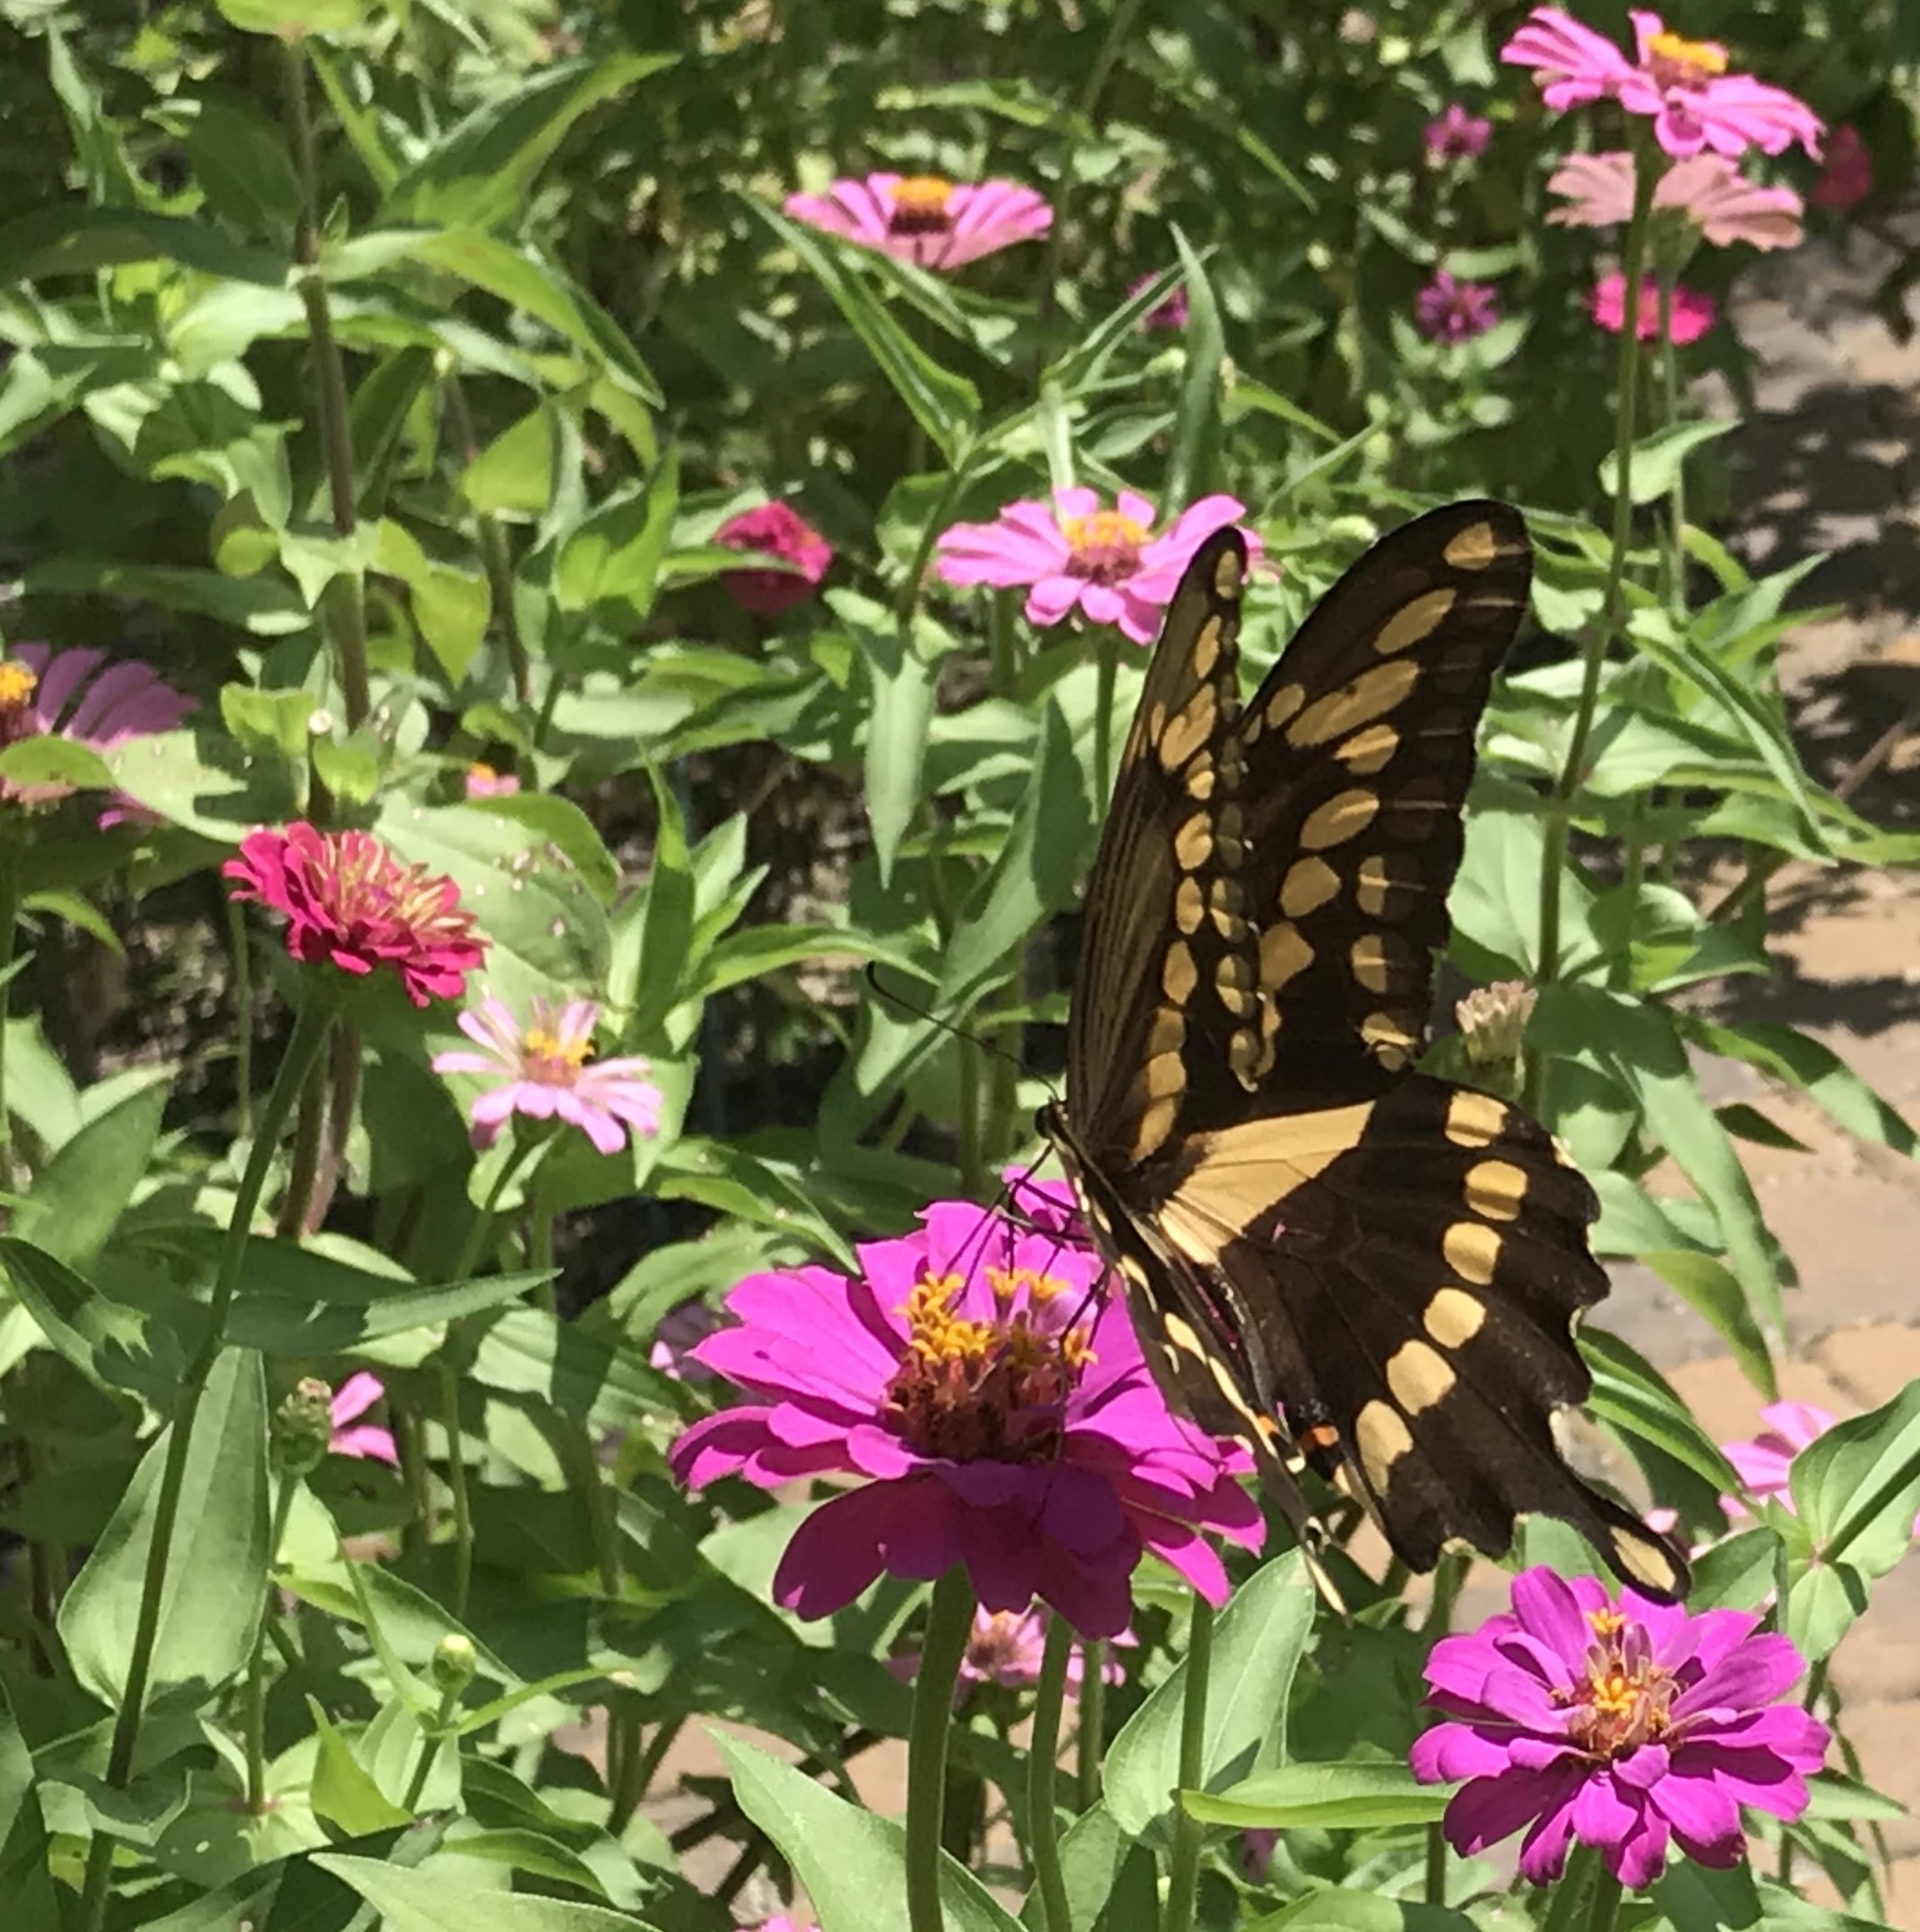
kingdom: Animalia
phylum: Arthropoda
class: Insecta
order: Lepidoptera
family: Papilionidae
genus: Papilio
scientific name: Papilio cresphontes
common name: Giant swallowtail
